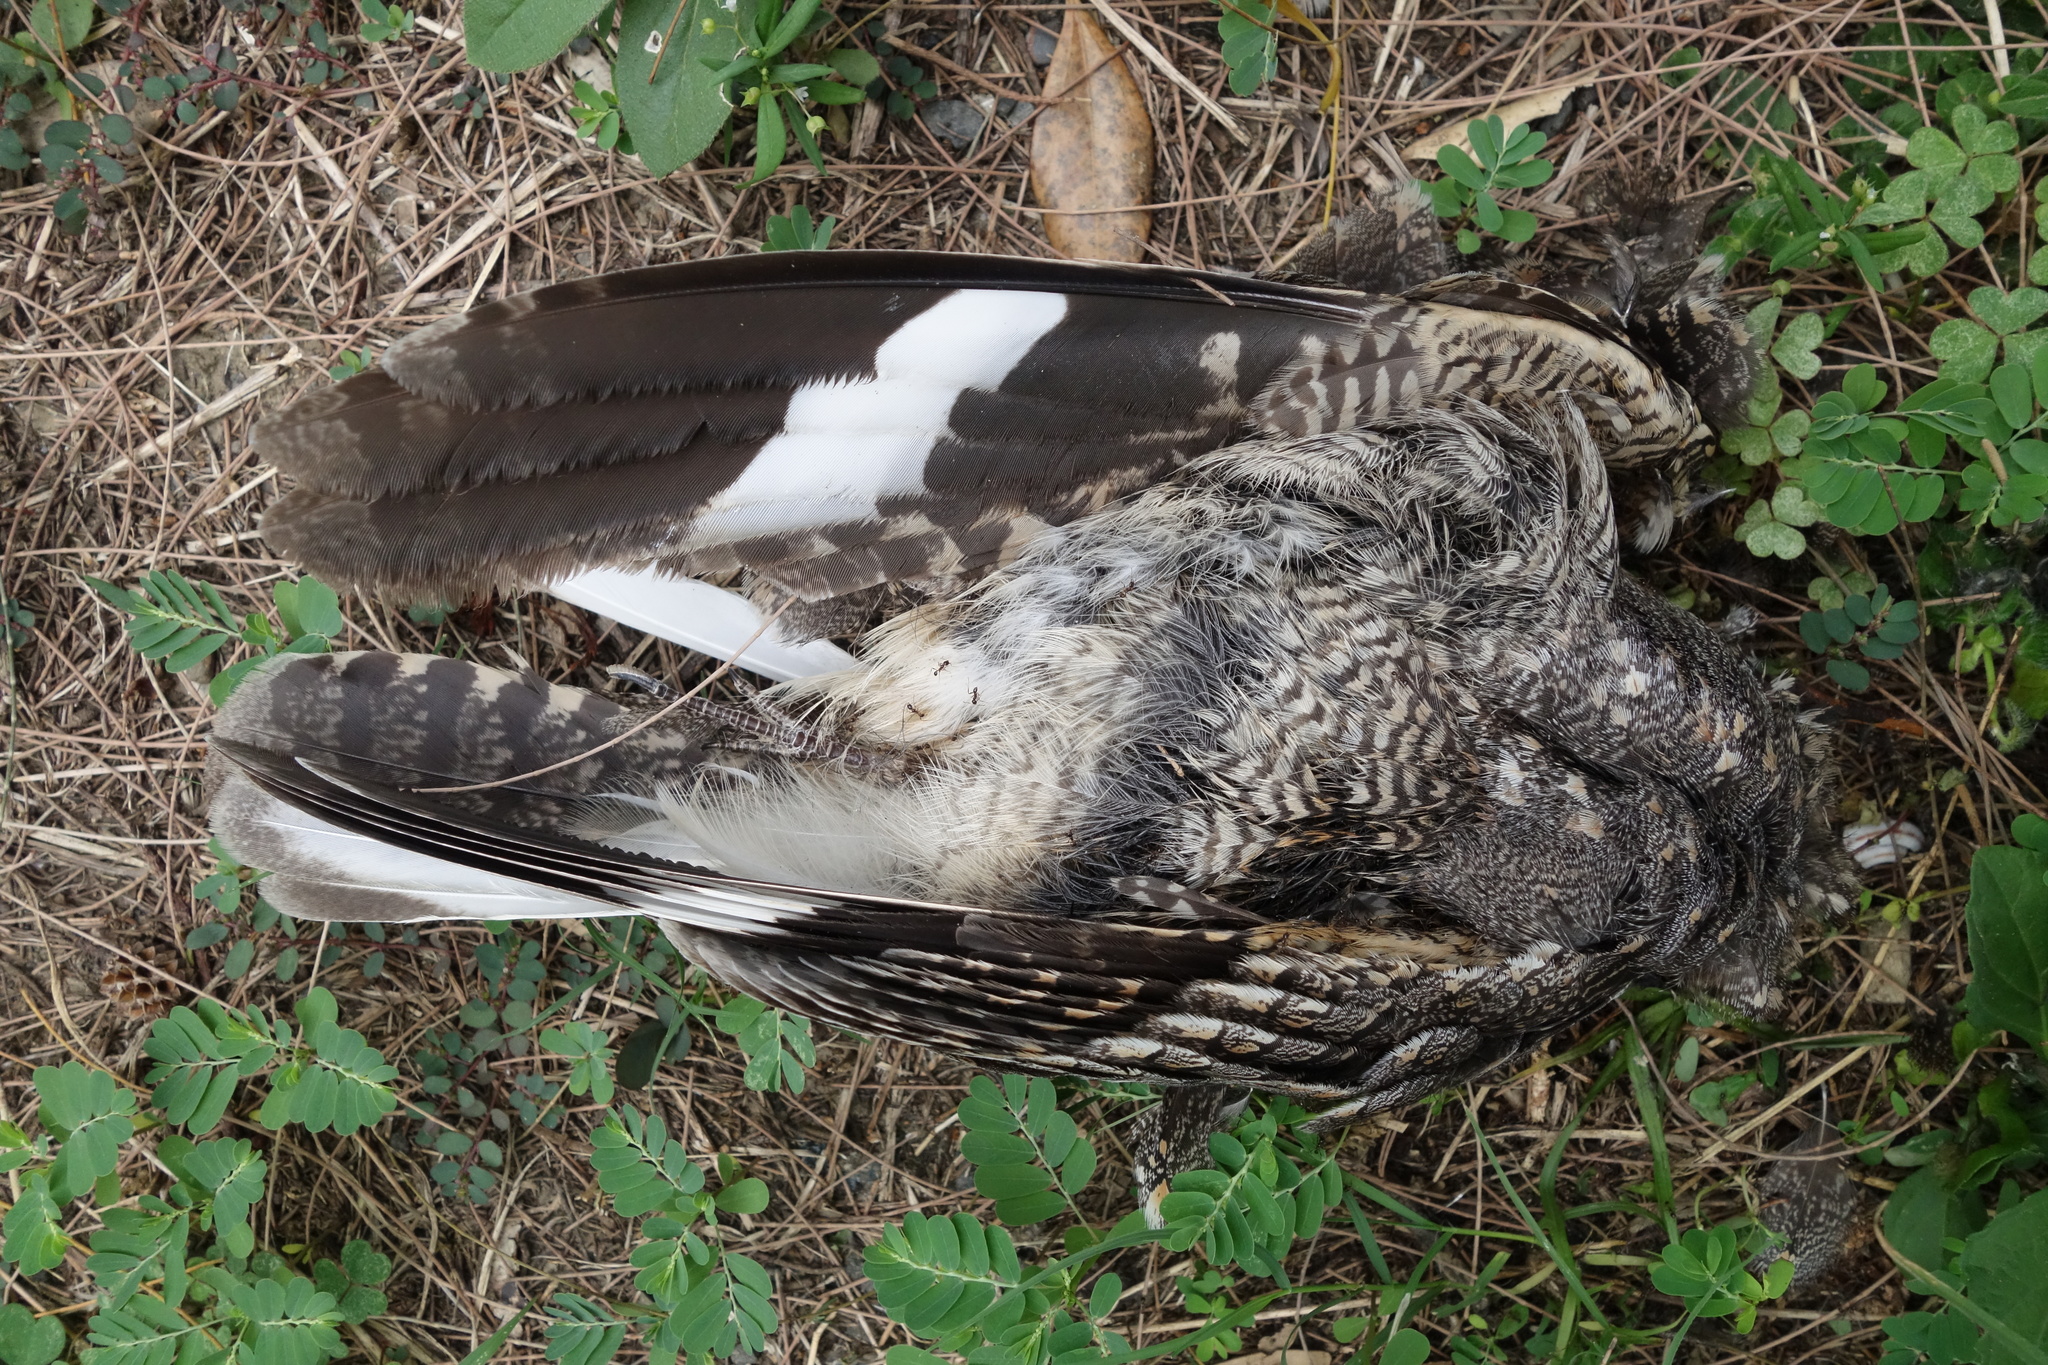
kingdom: Animalia
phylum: Chordata
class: Aves
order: Caprimulgiformes
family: Caprimulgidae
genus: Caprimulgus
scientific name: Caprimulgus affinis
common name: Savanna nightjar
